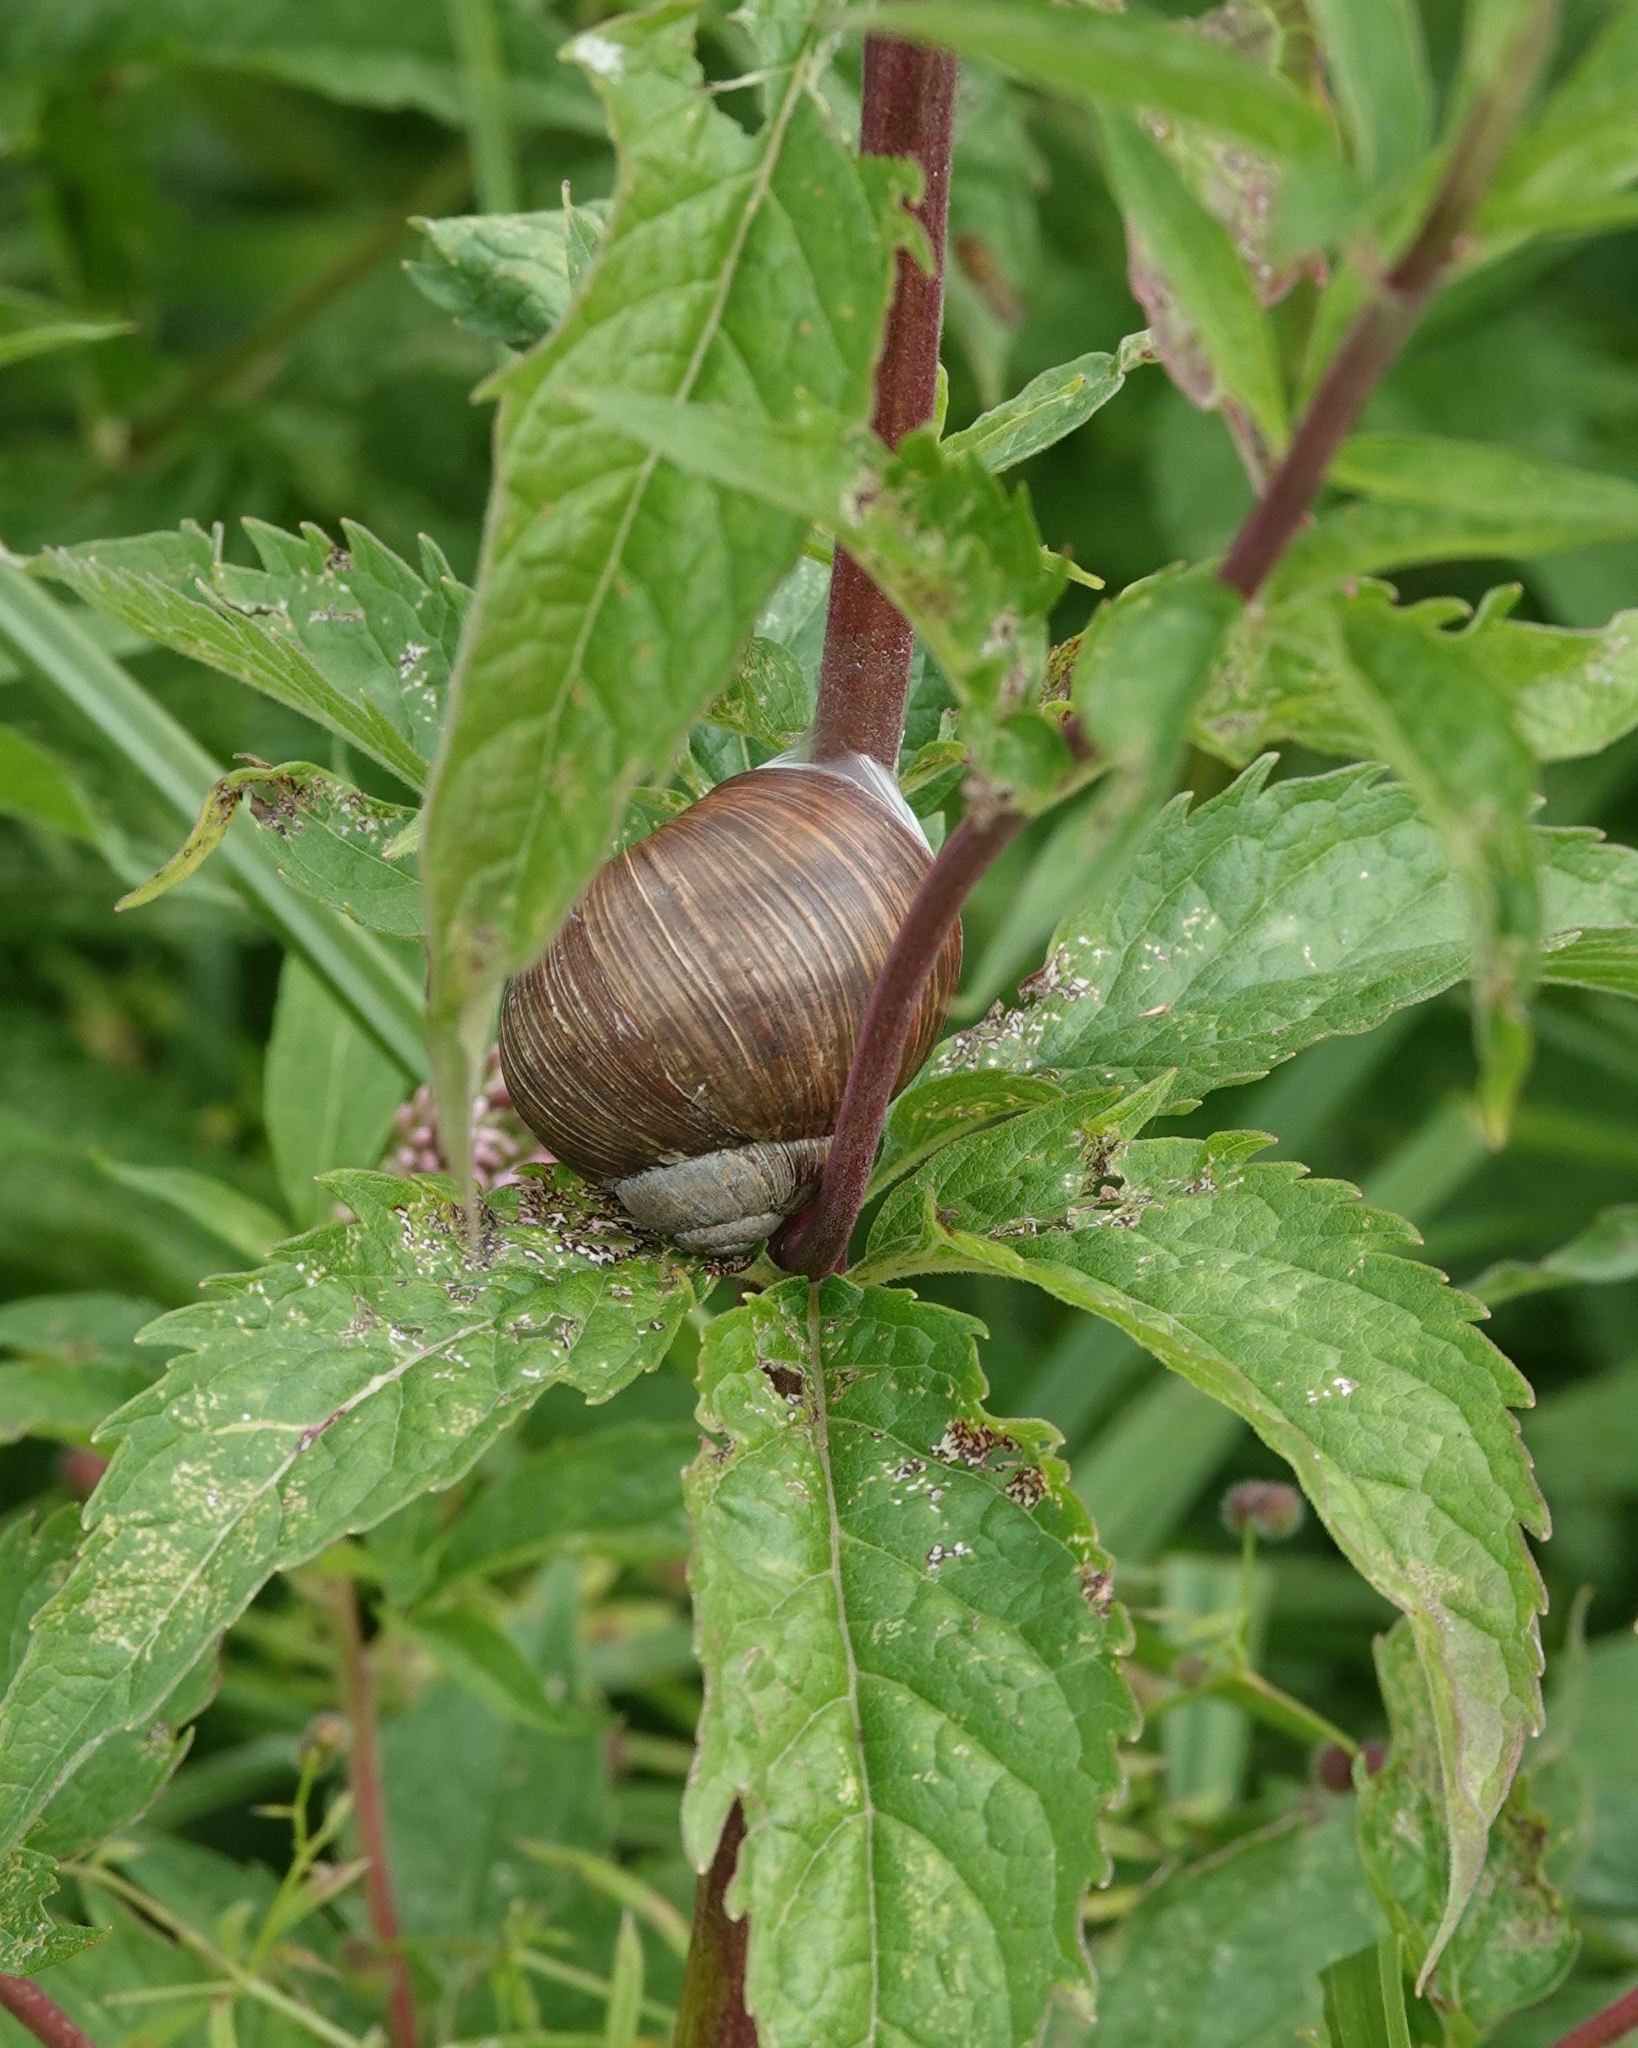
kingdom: Animalia
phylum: Mollusca
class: Gastropoda
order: Stylommatophora
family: Helicidae
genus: Helix
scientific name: Helix pomatia
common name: Roman snail
